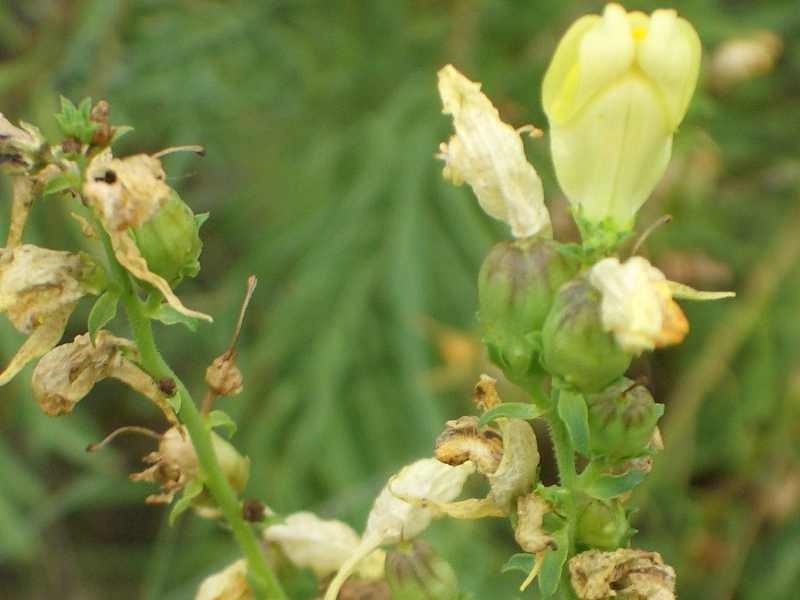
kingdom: Plantae
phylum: Tracheophyta
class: Magnoliopsida
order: Lamiales
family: Plantaginaceae
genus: Linaria
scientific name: Linaria vulgaris
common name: Butter and eggs
